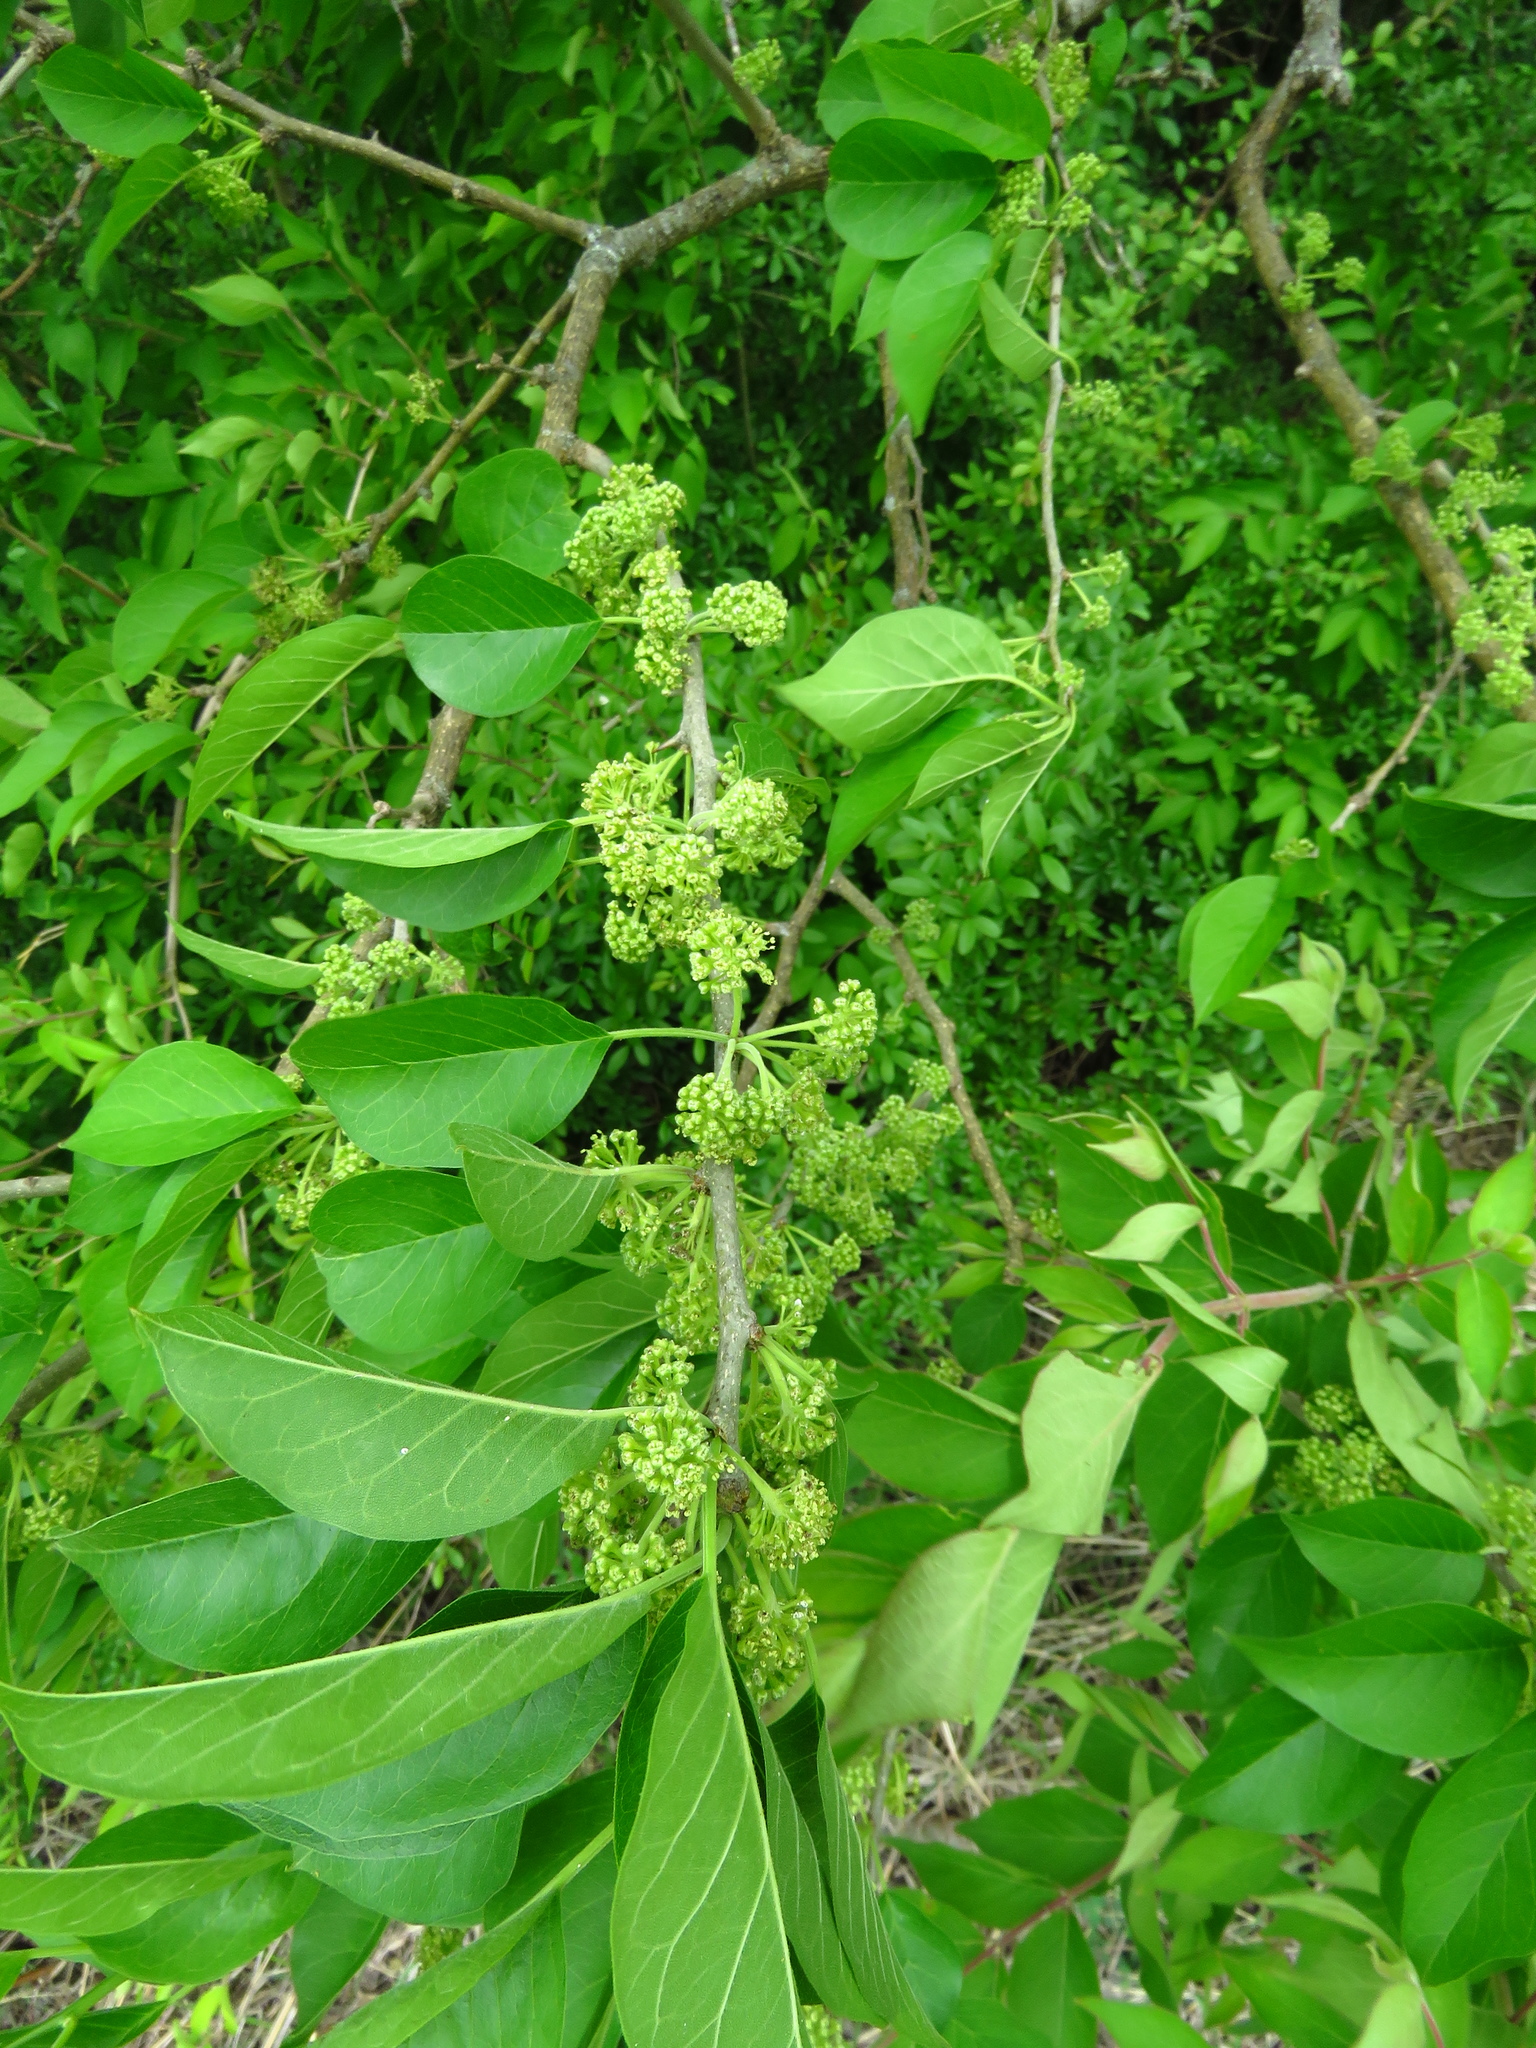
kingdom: Plantae
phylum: Tracheophyta
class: Magnoliopsida
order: Rosales
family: Moraceae
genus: Maclura
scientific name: Maclura pomifera
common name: Osage-orange
